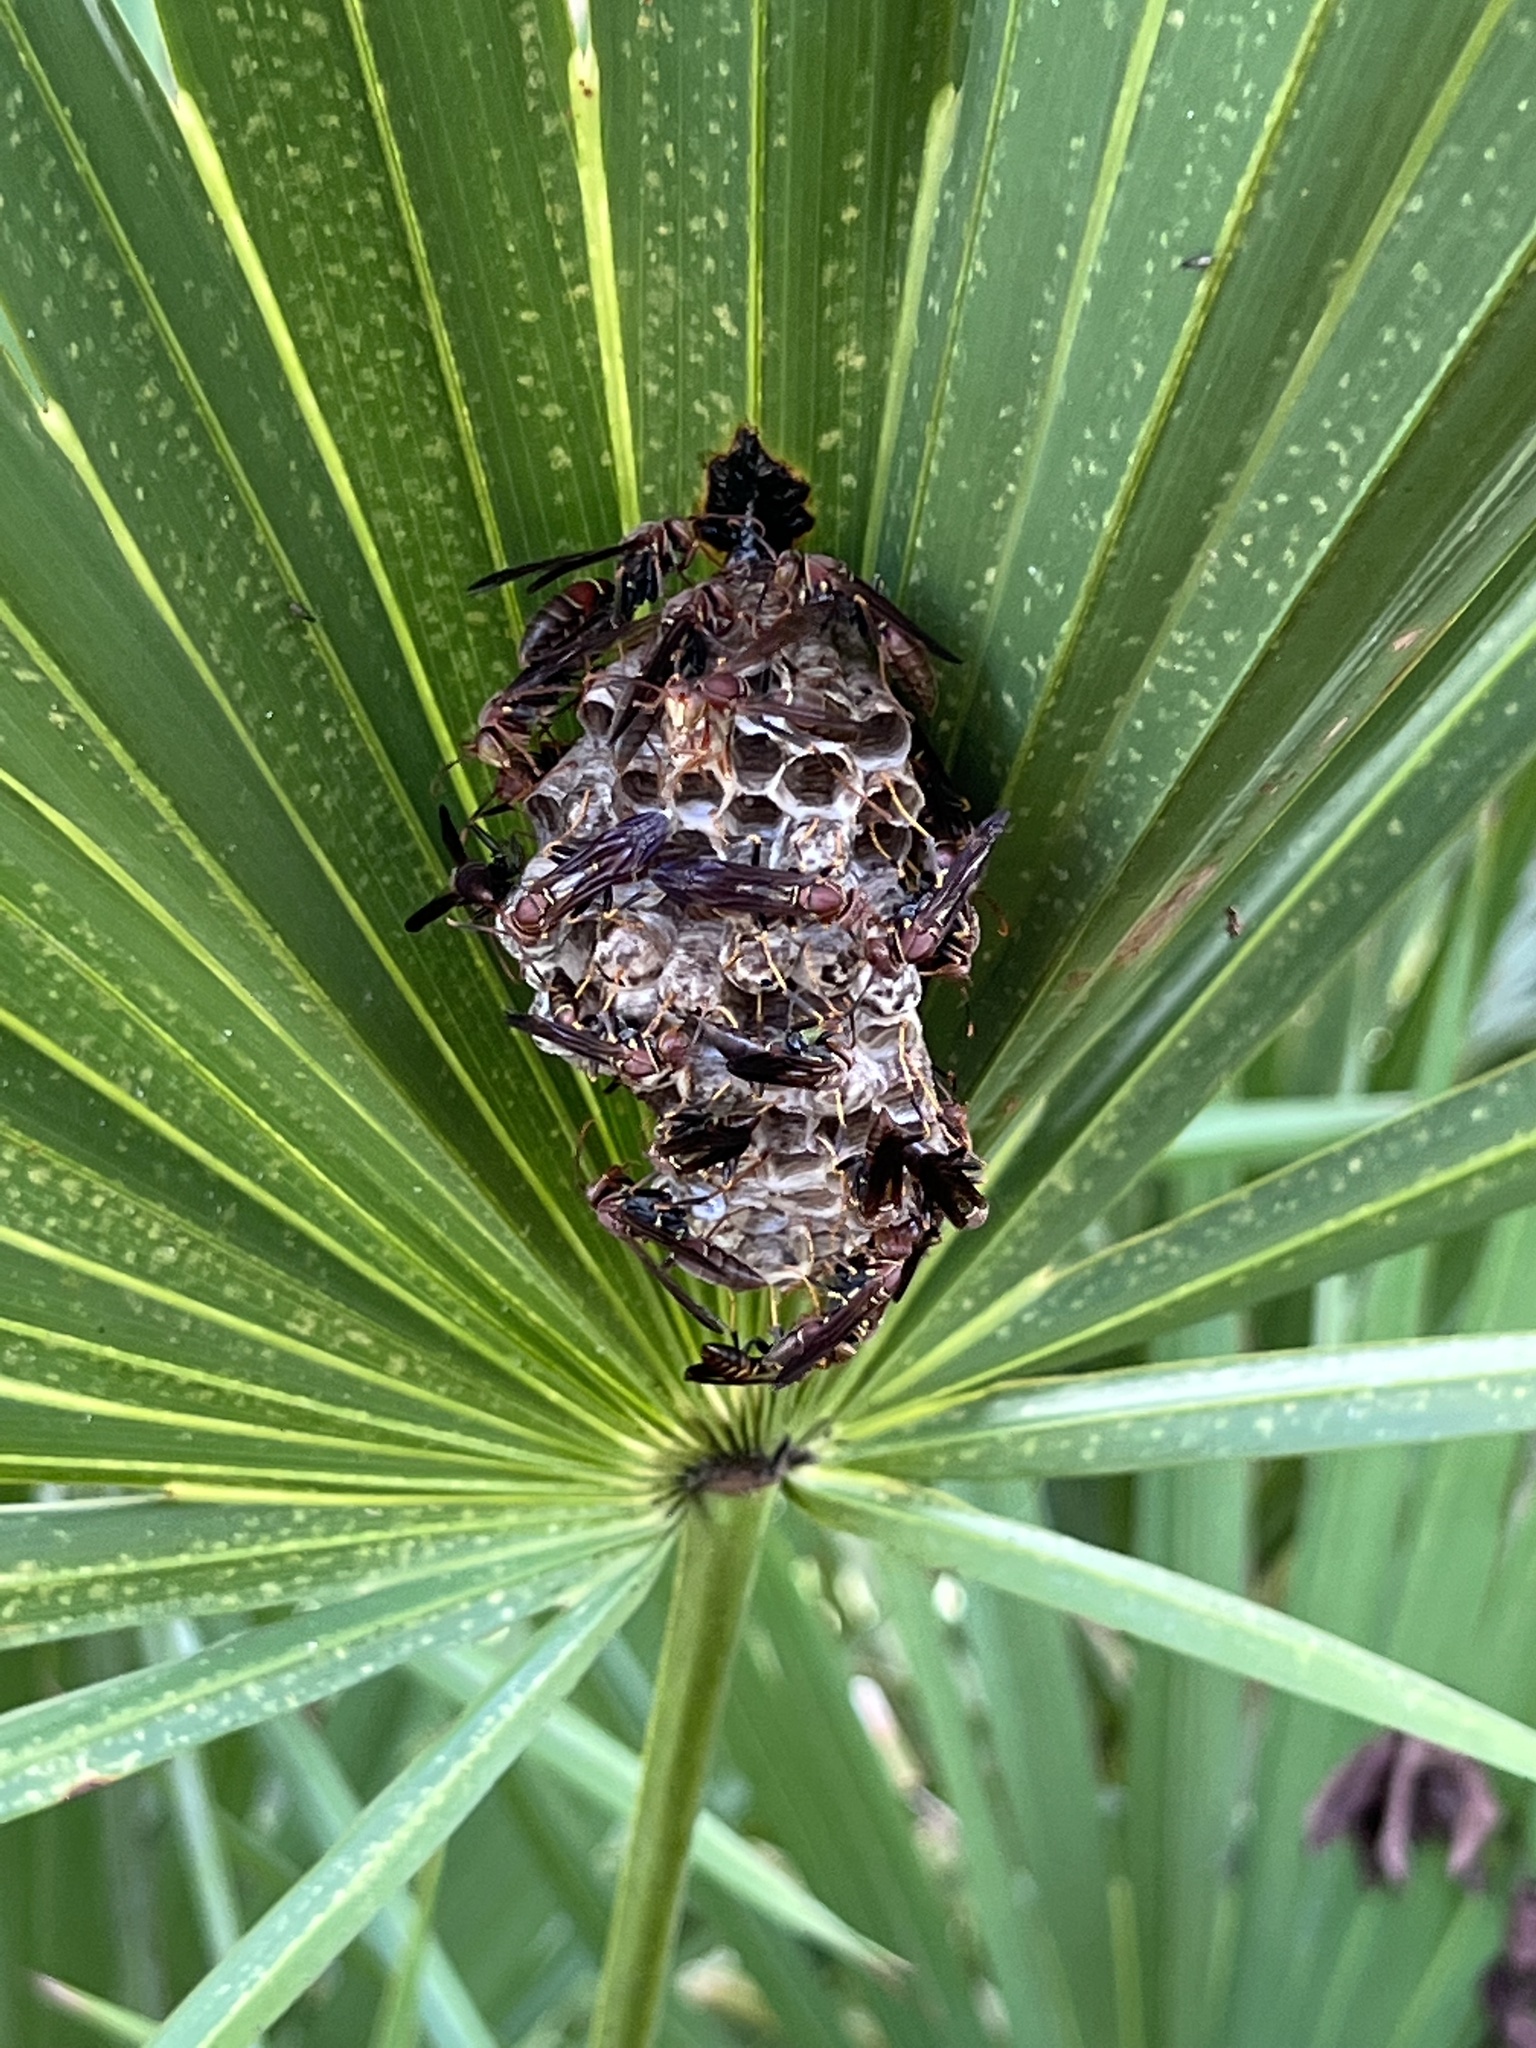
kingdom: Animalia
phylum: Arthropoda
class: Insecta
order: Hymenoptera
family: Eumenidae
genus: Polistes
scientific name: Polistes bahamensis
